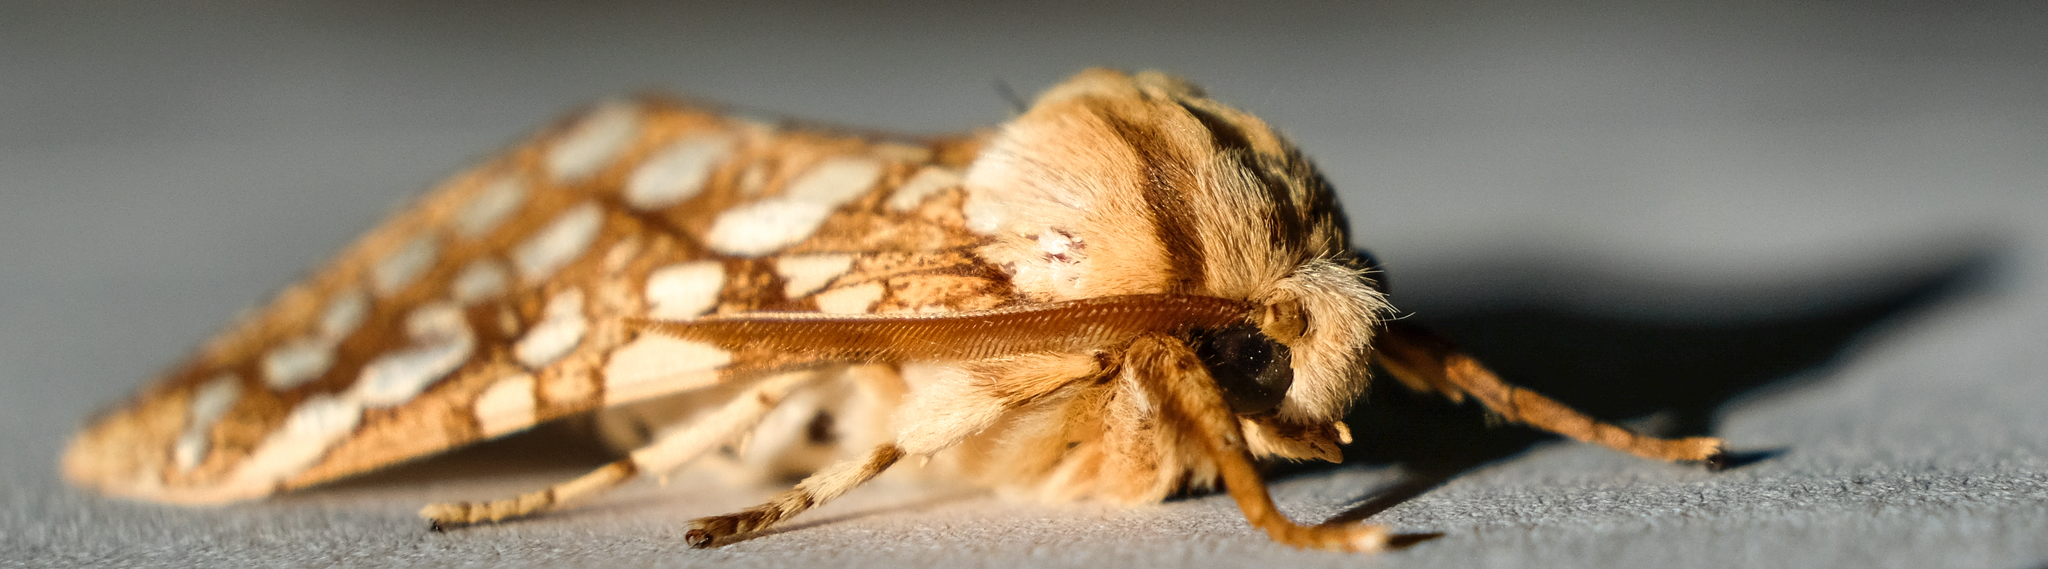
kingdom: Animalia
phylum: Arthropoda
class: Insecta
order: Lepidoptera
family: Erebidae
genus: Lophocampa
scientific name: Lophocampa caryae
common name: Hickory tussock moth
